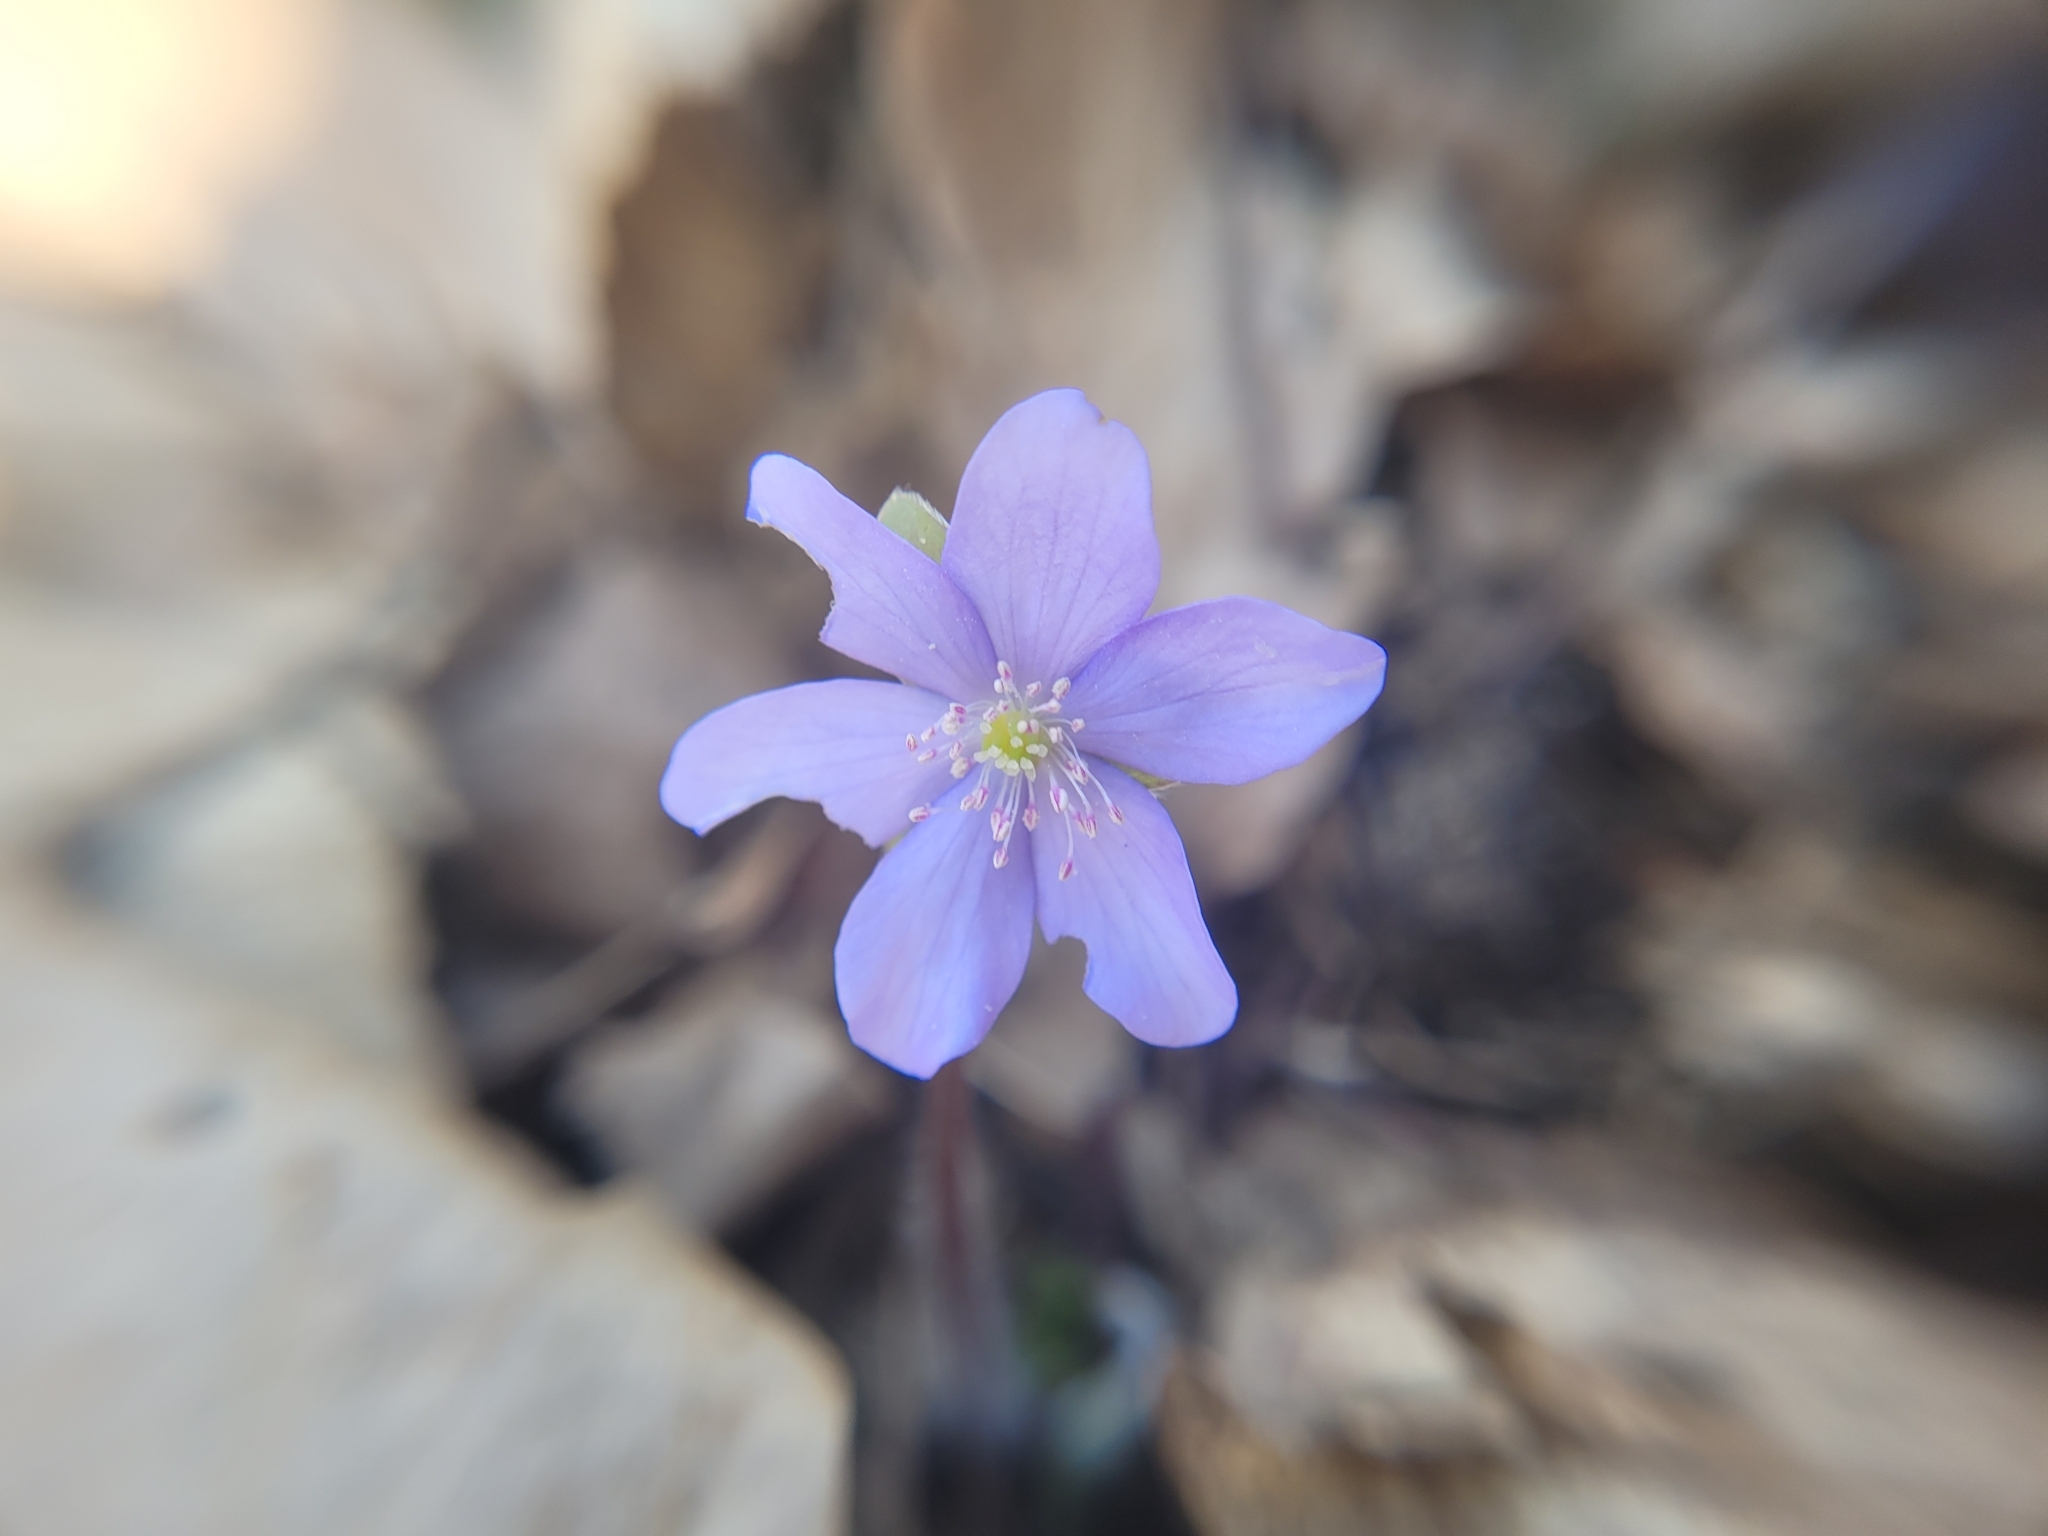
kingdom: Plantae
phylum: Tracheophyta
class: Magnoliopsida
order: Ranunculales
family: Ranunculaceae
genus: Hepatica
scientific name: Hepatica nobilis
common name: Liverleaf
